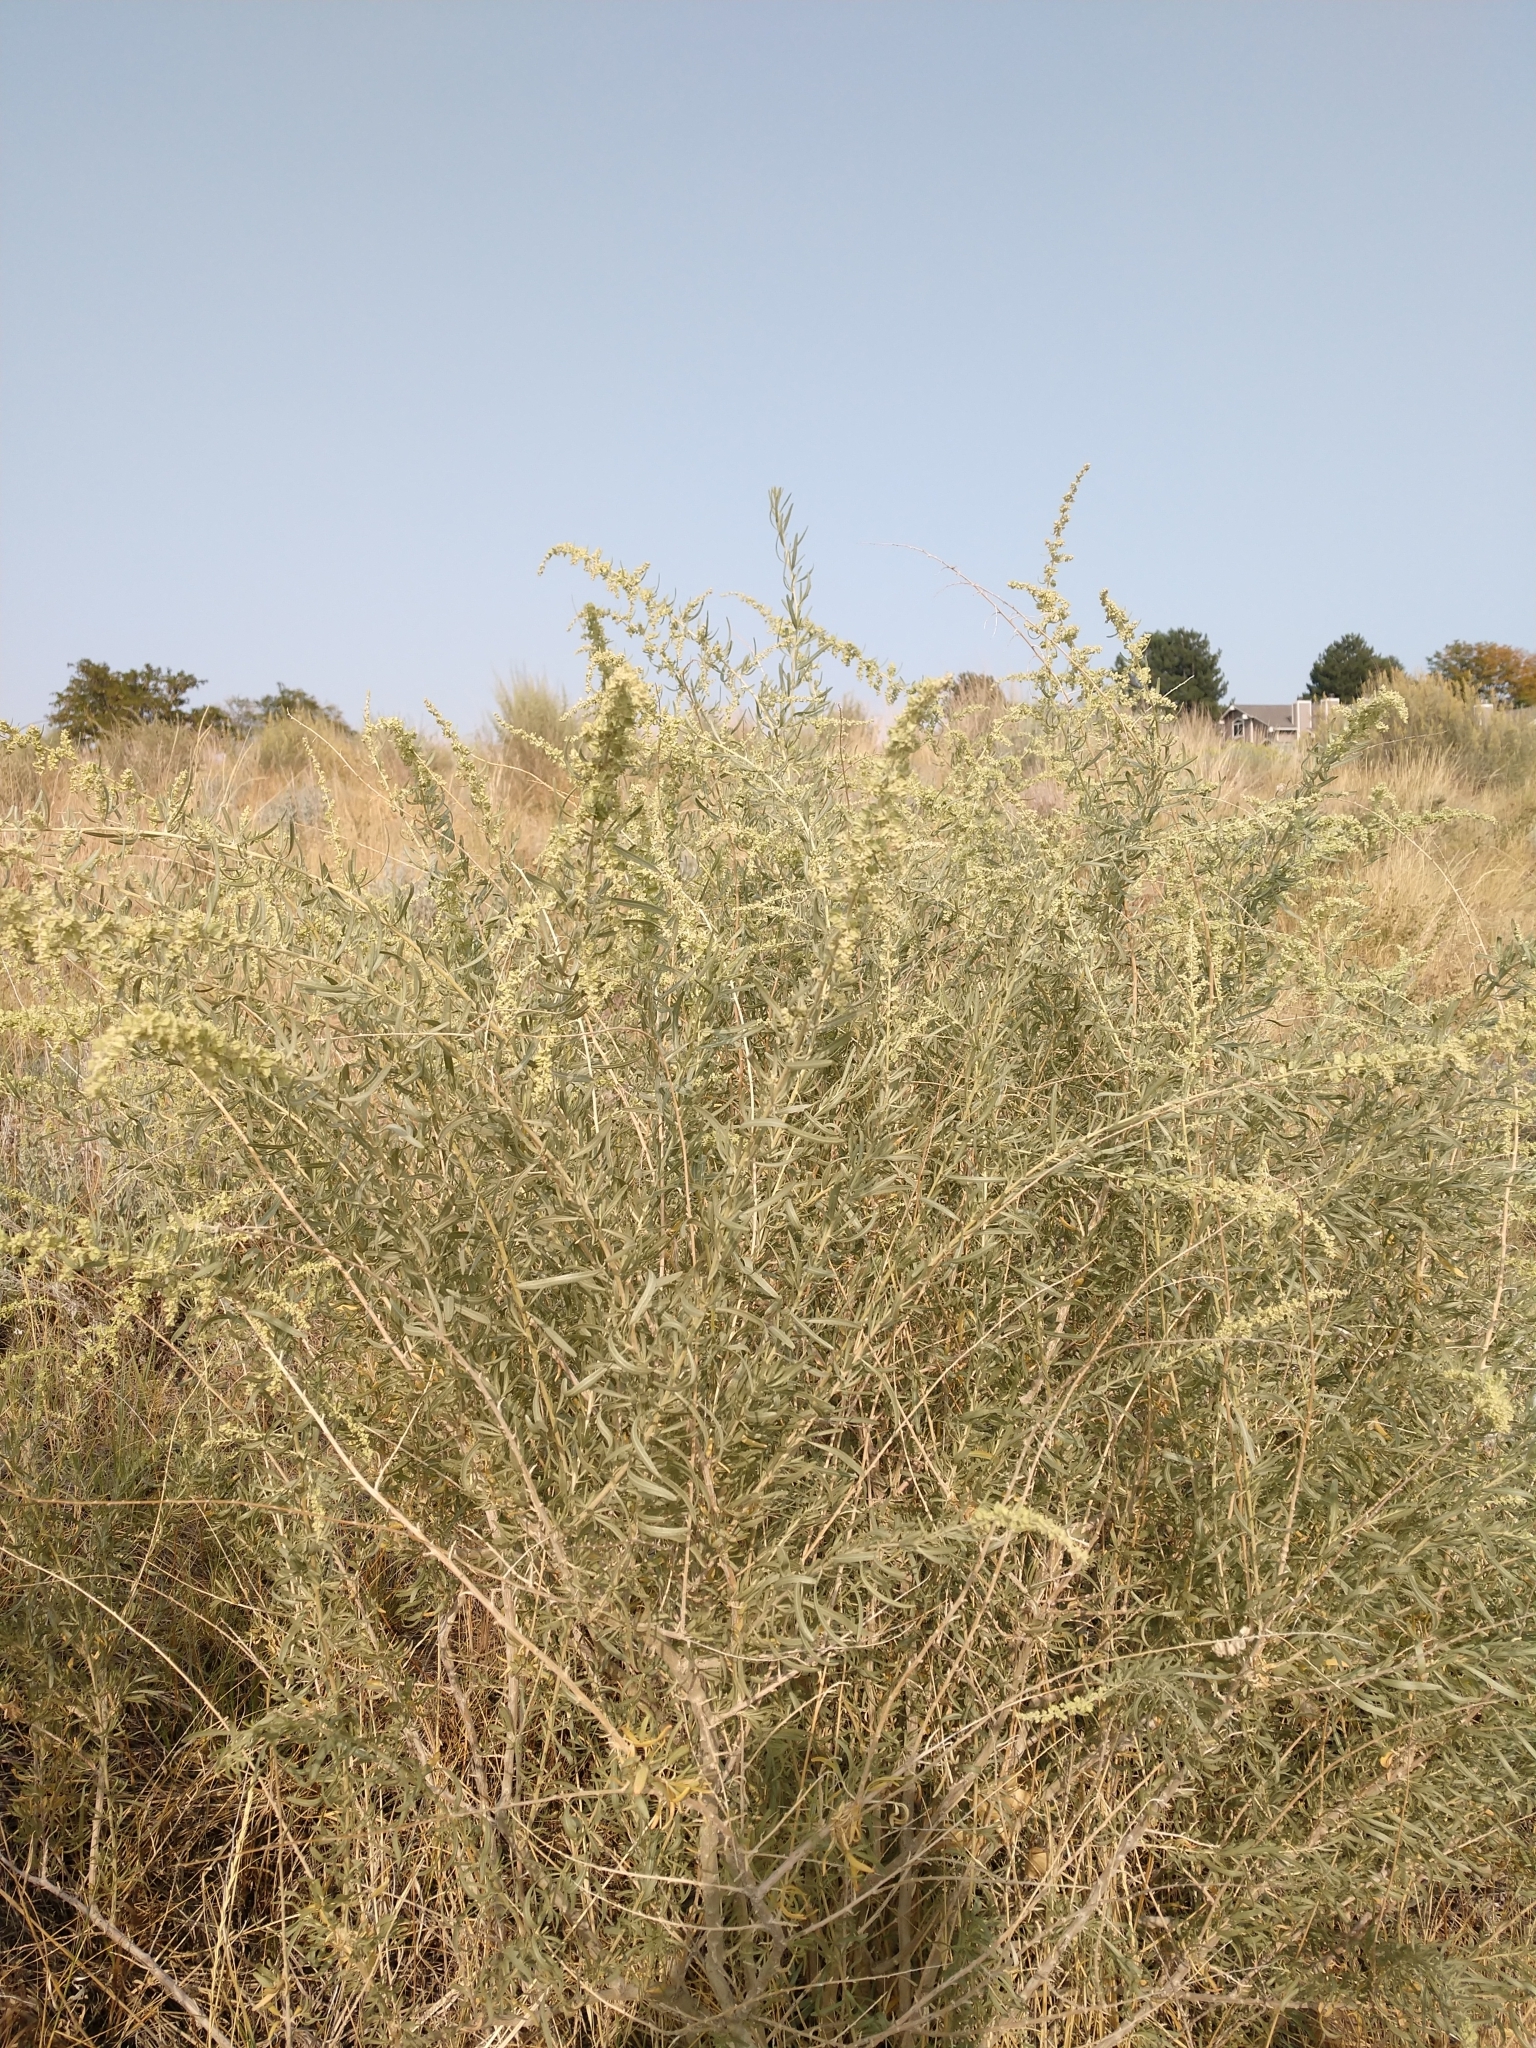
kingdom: Plantae
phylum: Tracheophyta
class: Magnoliopsida
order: Caryophyllales
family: Amaranthaceae
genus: Atriplex
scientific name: Atriplex canescens
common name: Four-wing saltbush
